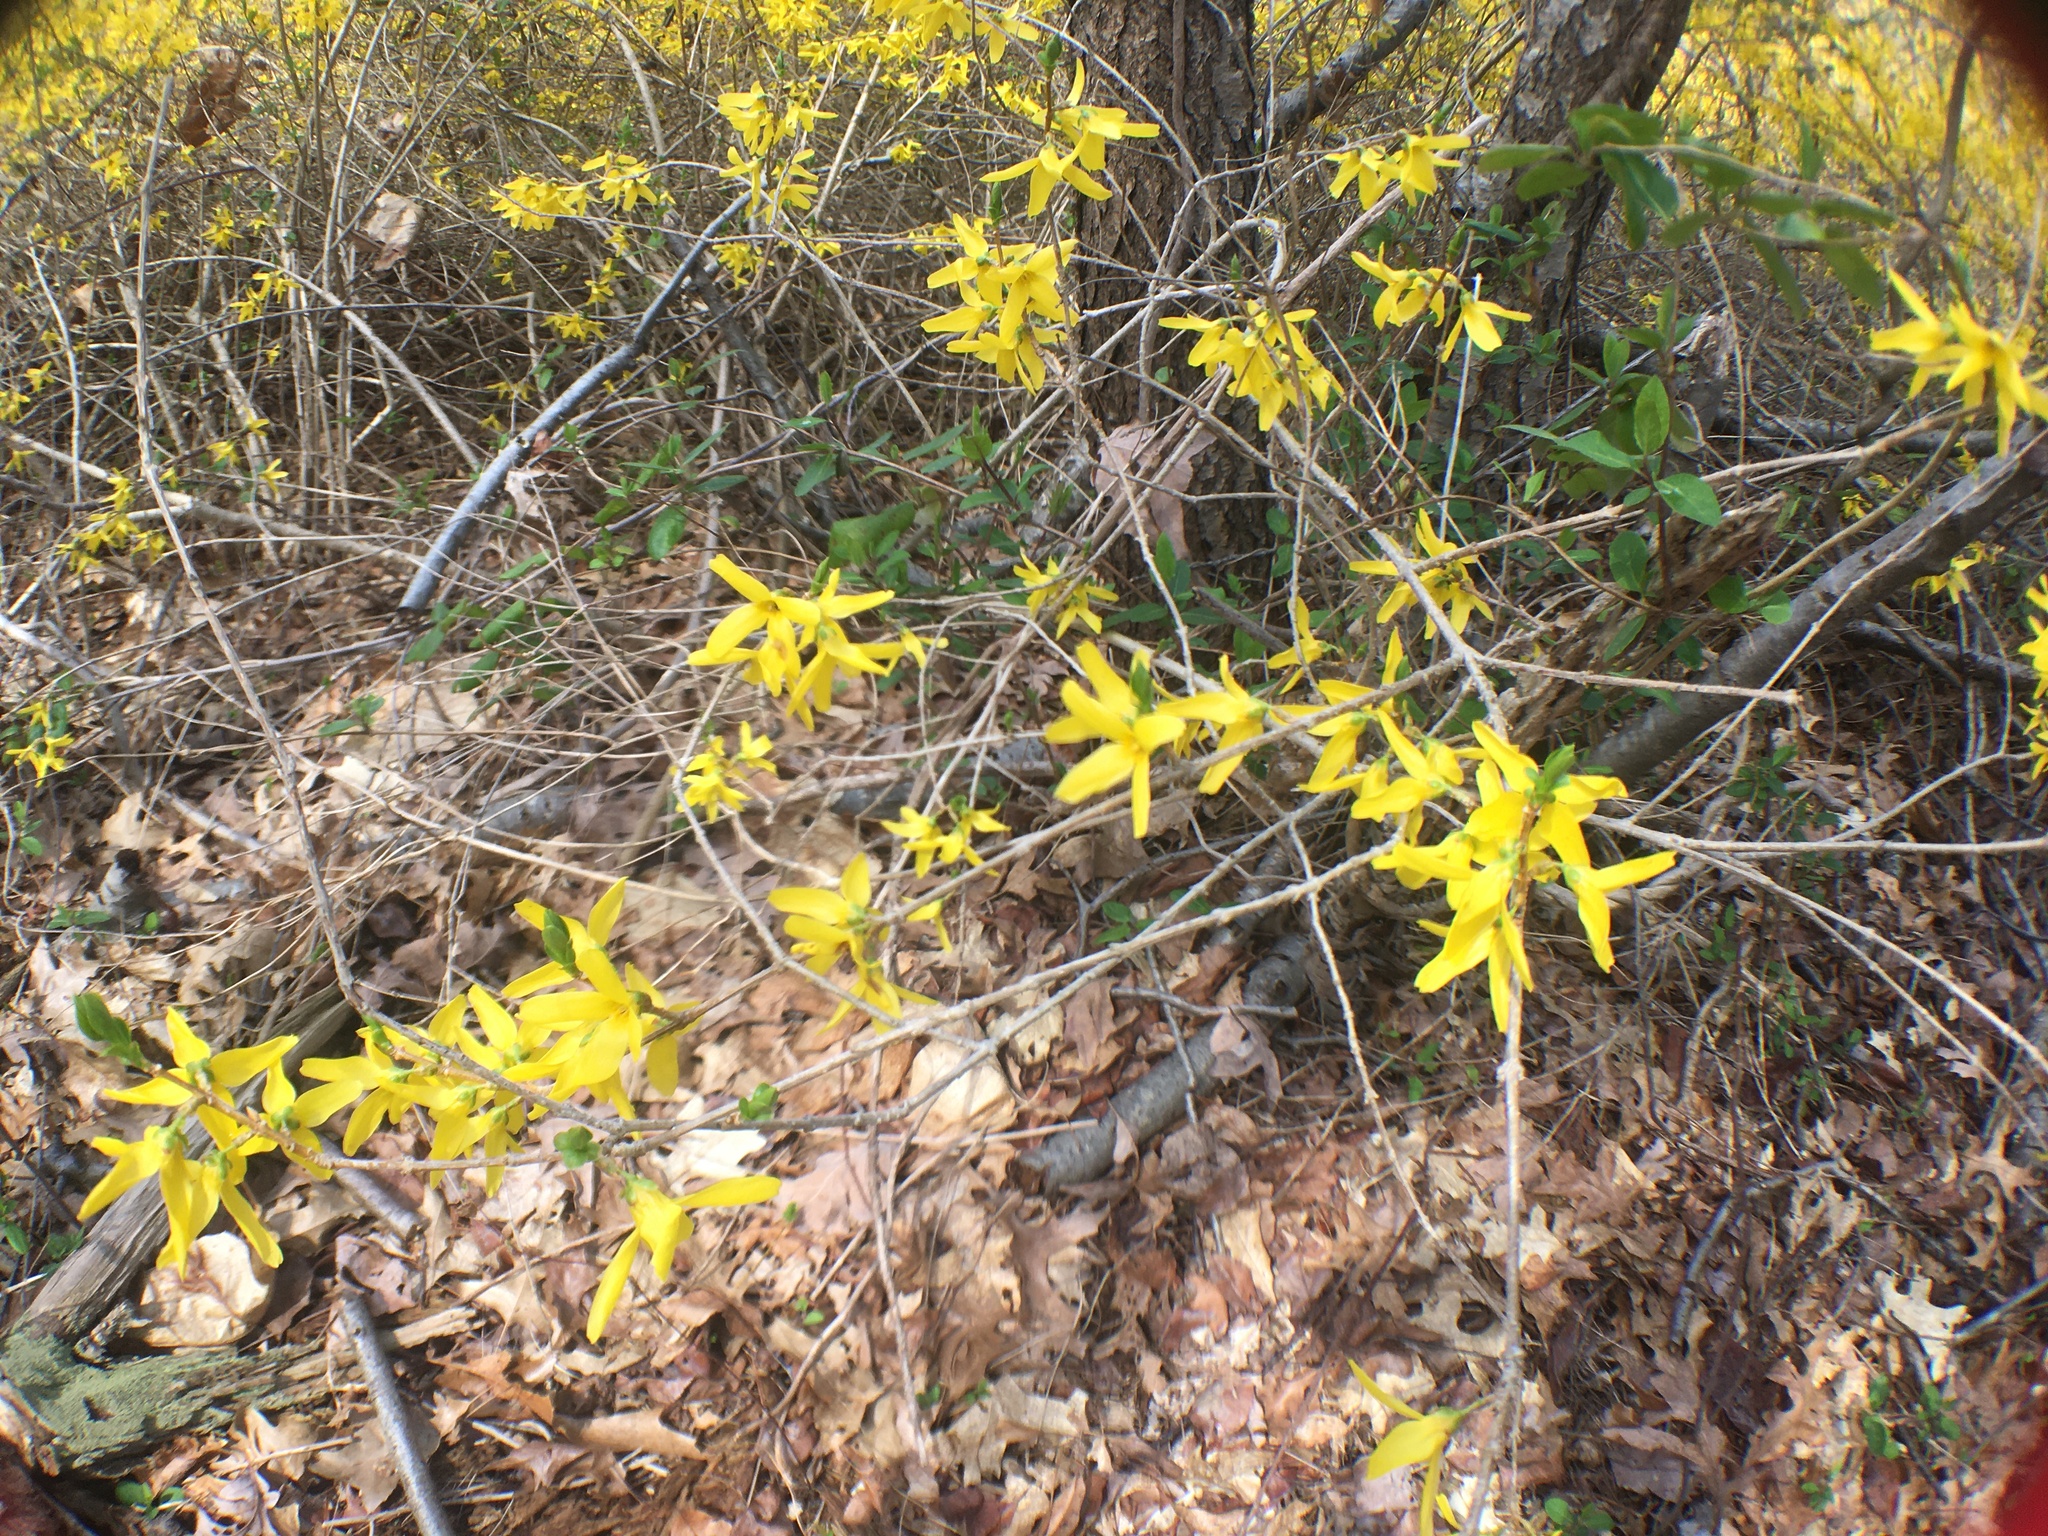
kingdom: Plantae
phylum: Tracheophyta
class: Magnoliopsida
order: Lamiales
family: Oleaceae
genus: Forsythia
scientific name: Forsythia intermedia
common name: Forsythia
